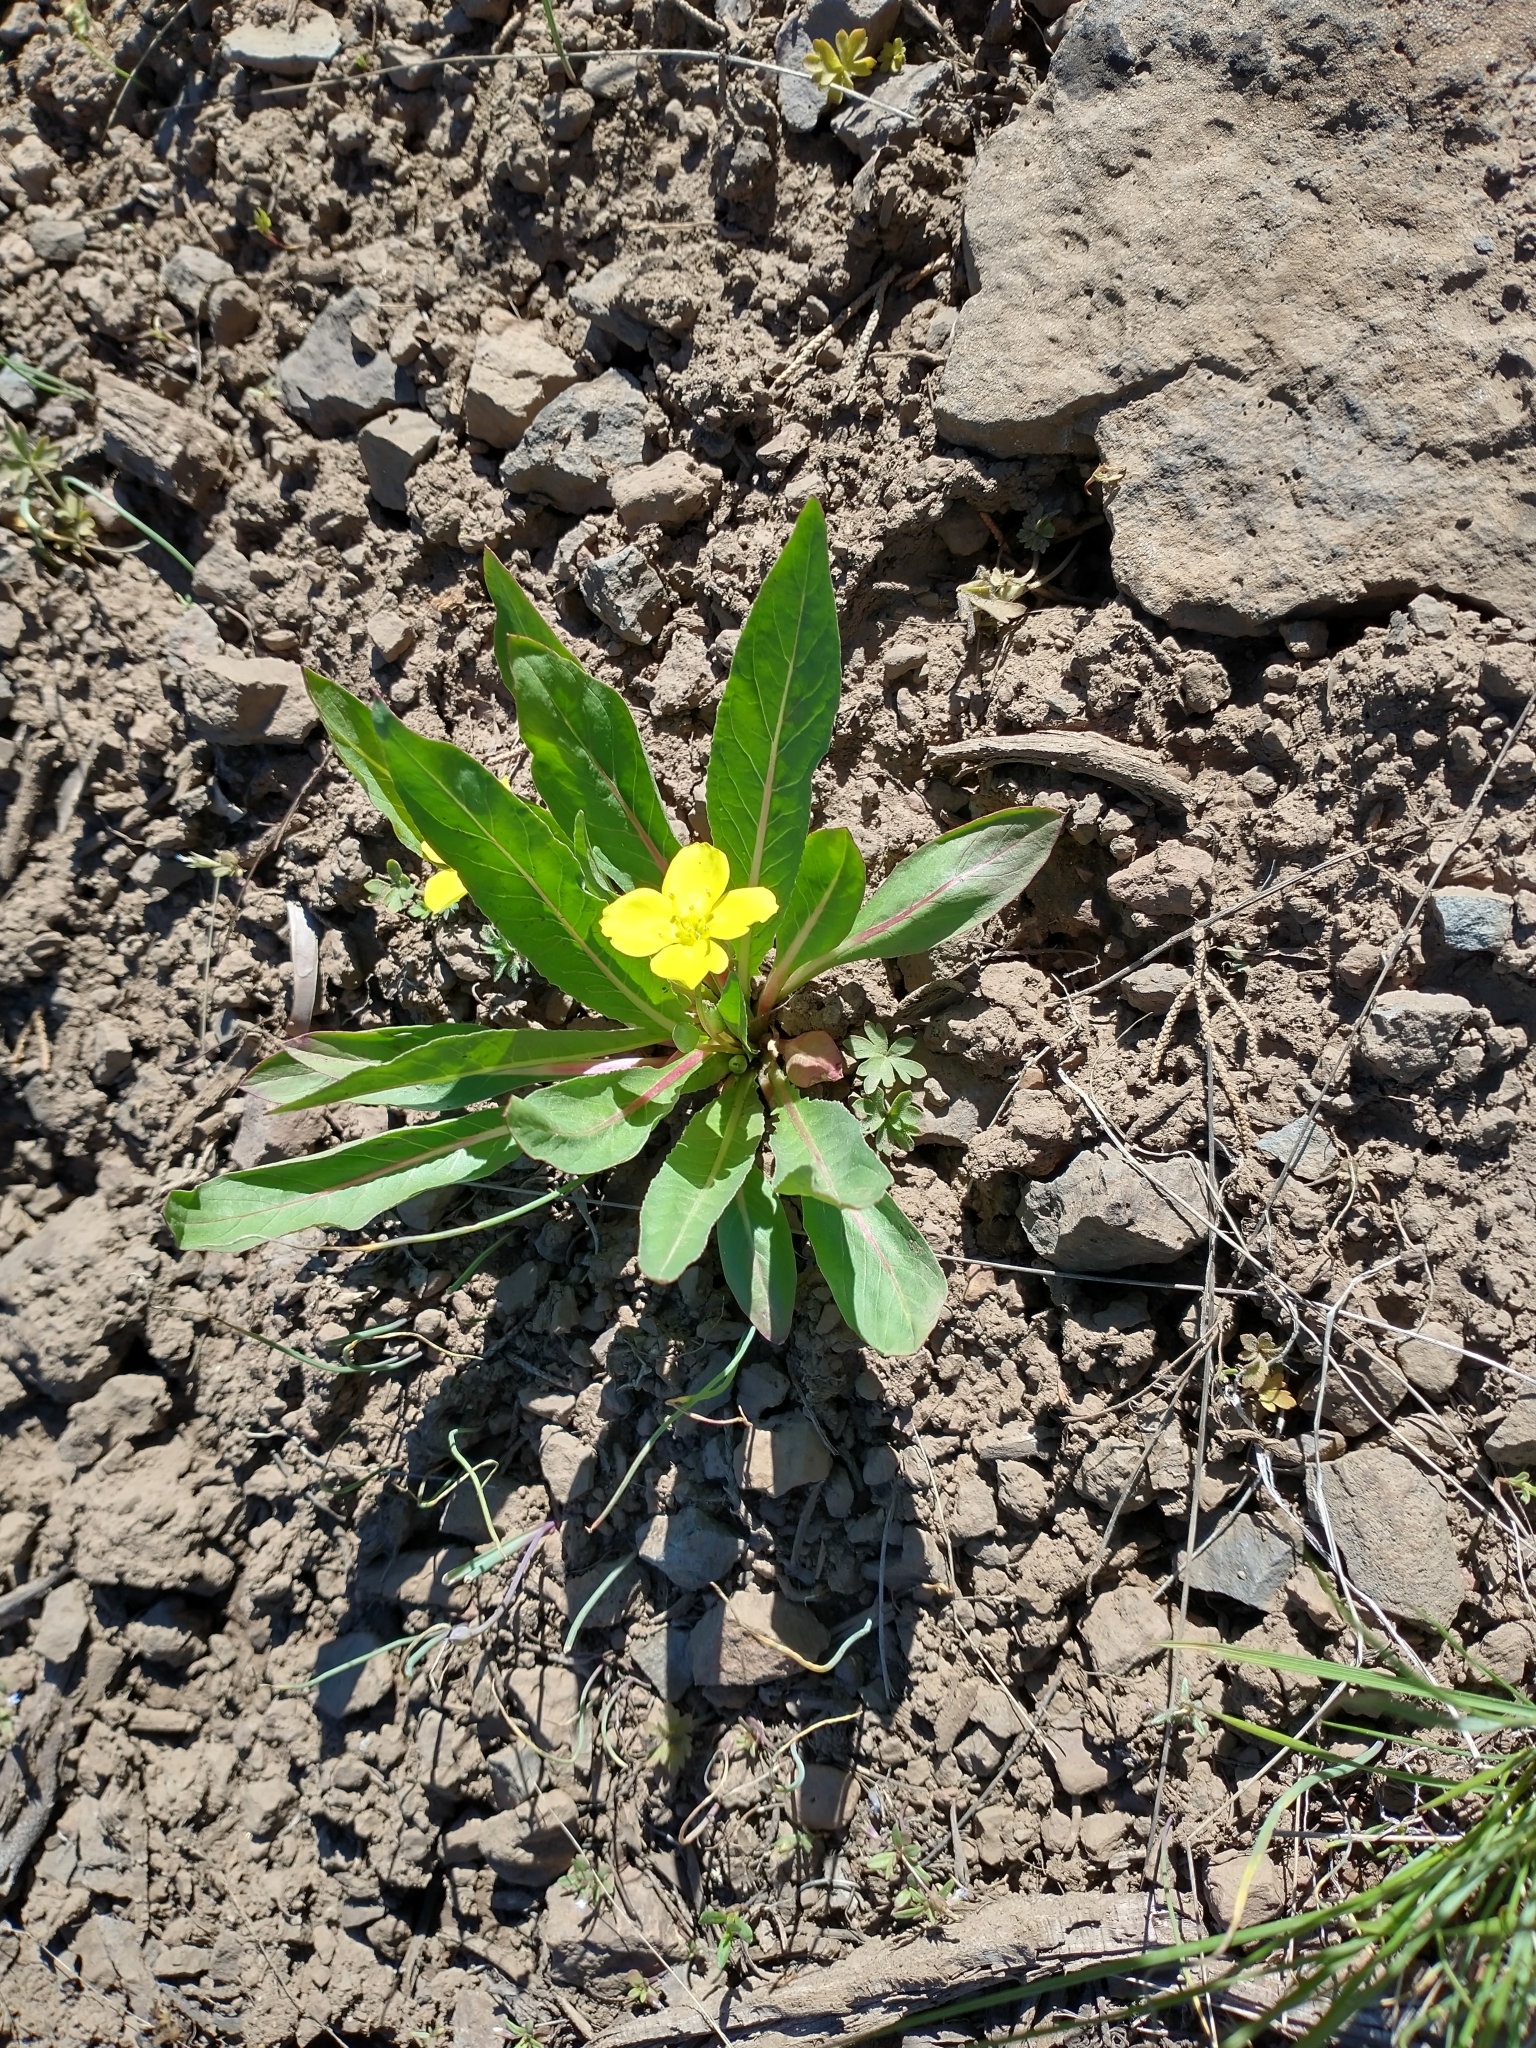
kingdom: Plantae
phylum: Tracheophyta
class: Magnoliopsida
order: Myrtales
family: Onagraceae
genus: Taraxia
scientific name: Taraxia subacaulis
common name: Diffuseflower evening primrose
